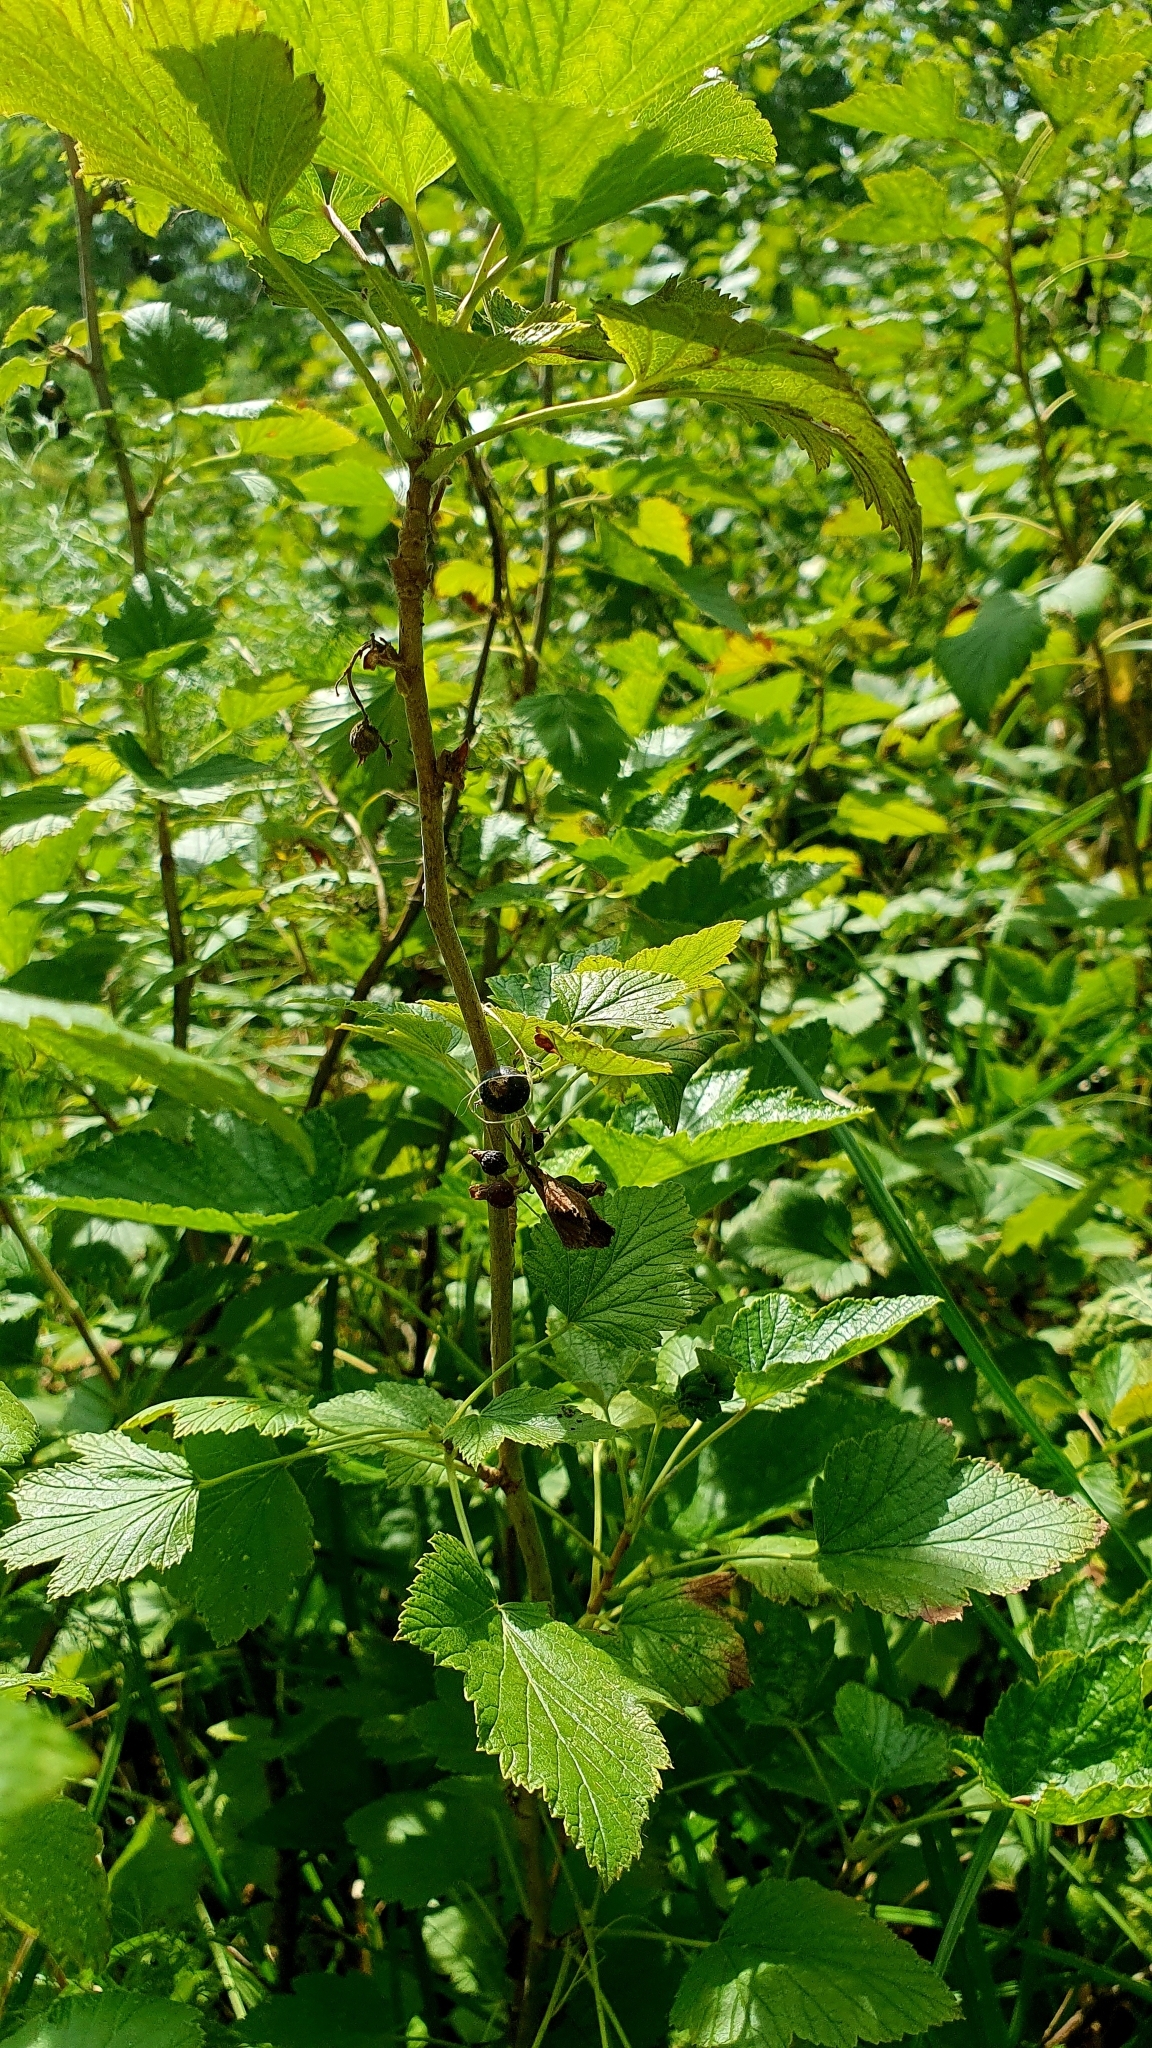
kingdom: Plantae
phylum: Tracheophyta
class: Magnoliopsida
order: Saxifragales
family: Grossulariaceae
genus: Ribes
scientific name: Ribes nigrum
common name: Black currant
